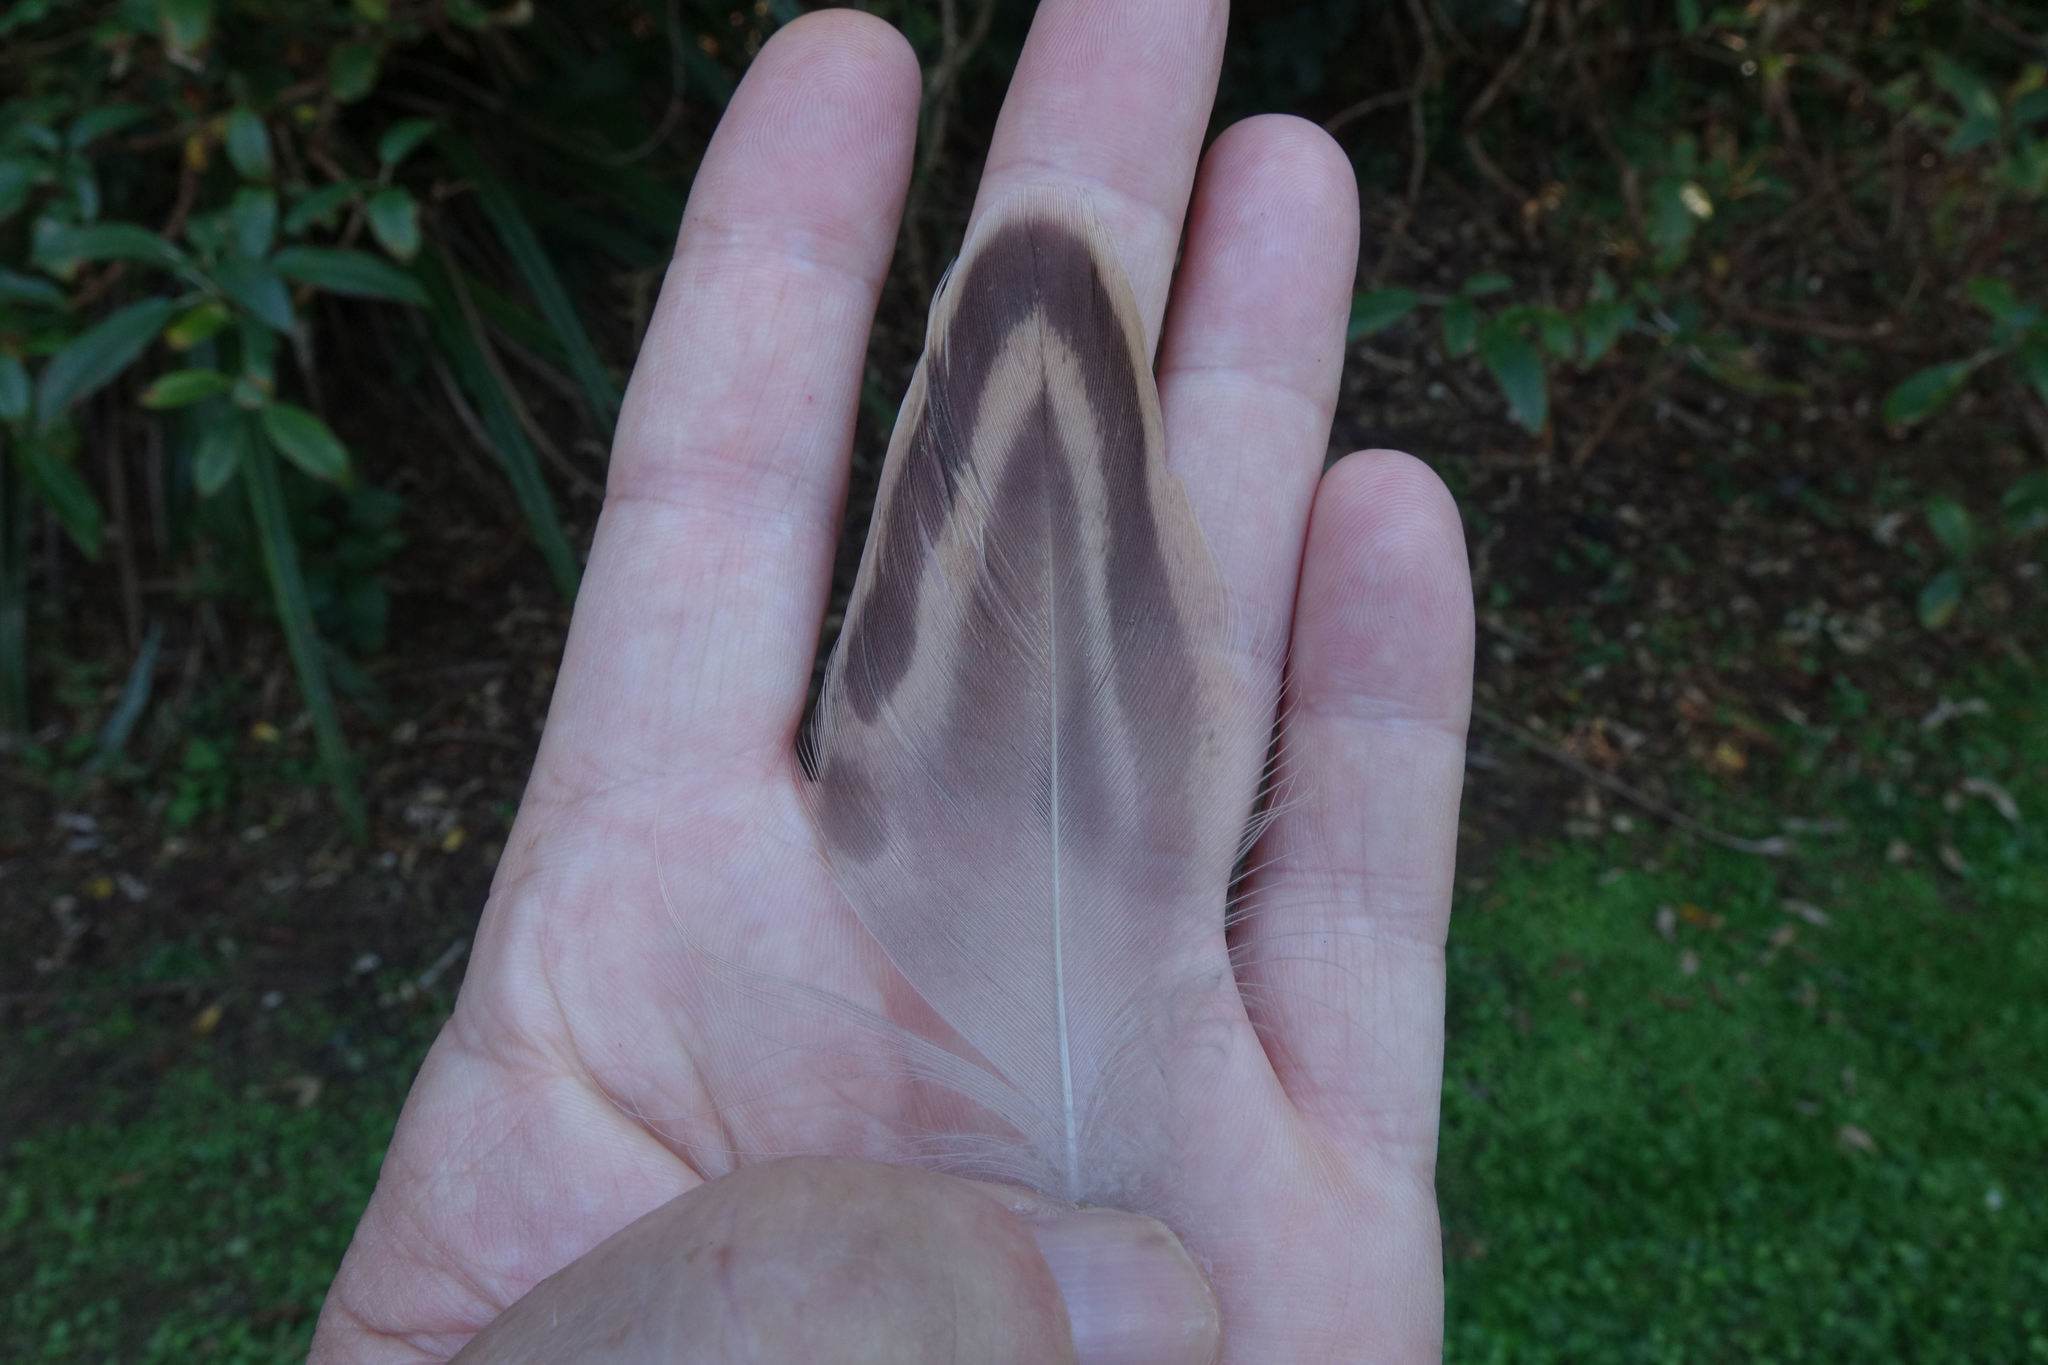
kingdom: Animalia
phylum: Chordata
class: Aves
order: Anseriformes
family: Anatidae
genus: Anas
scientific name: Anas platyrhynchos
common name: Mallard
